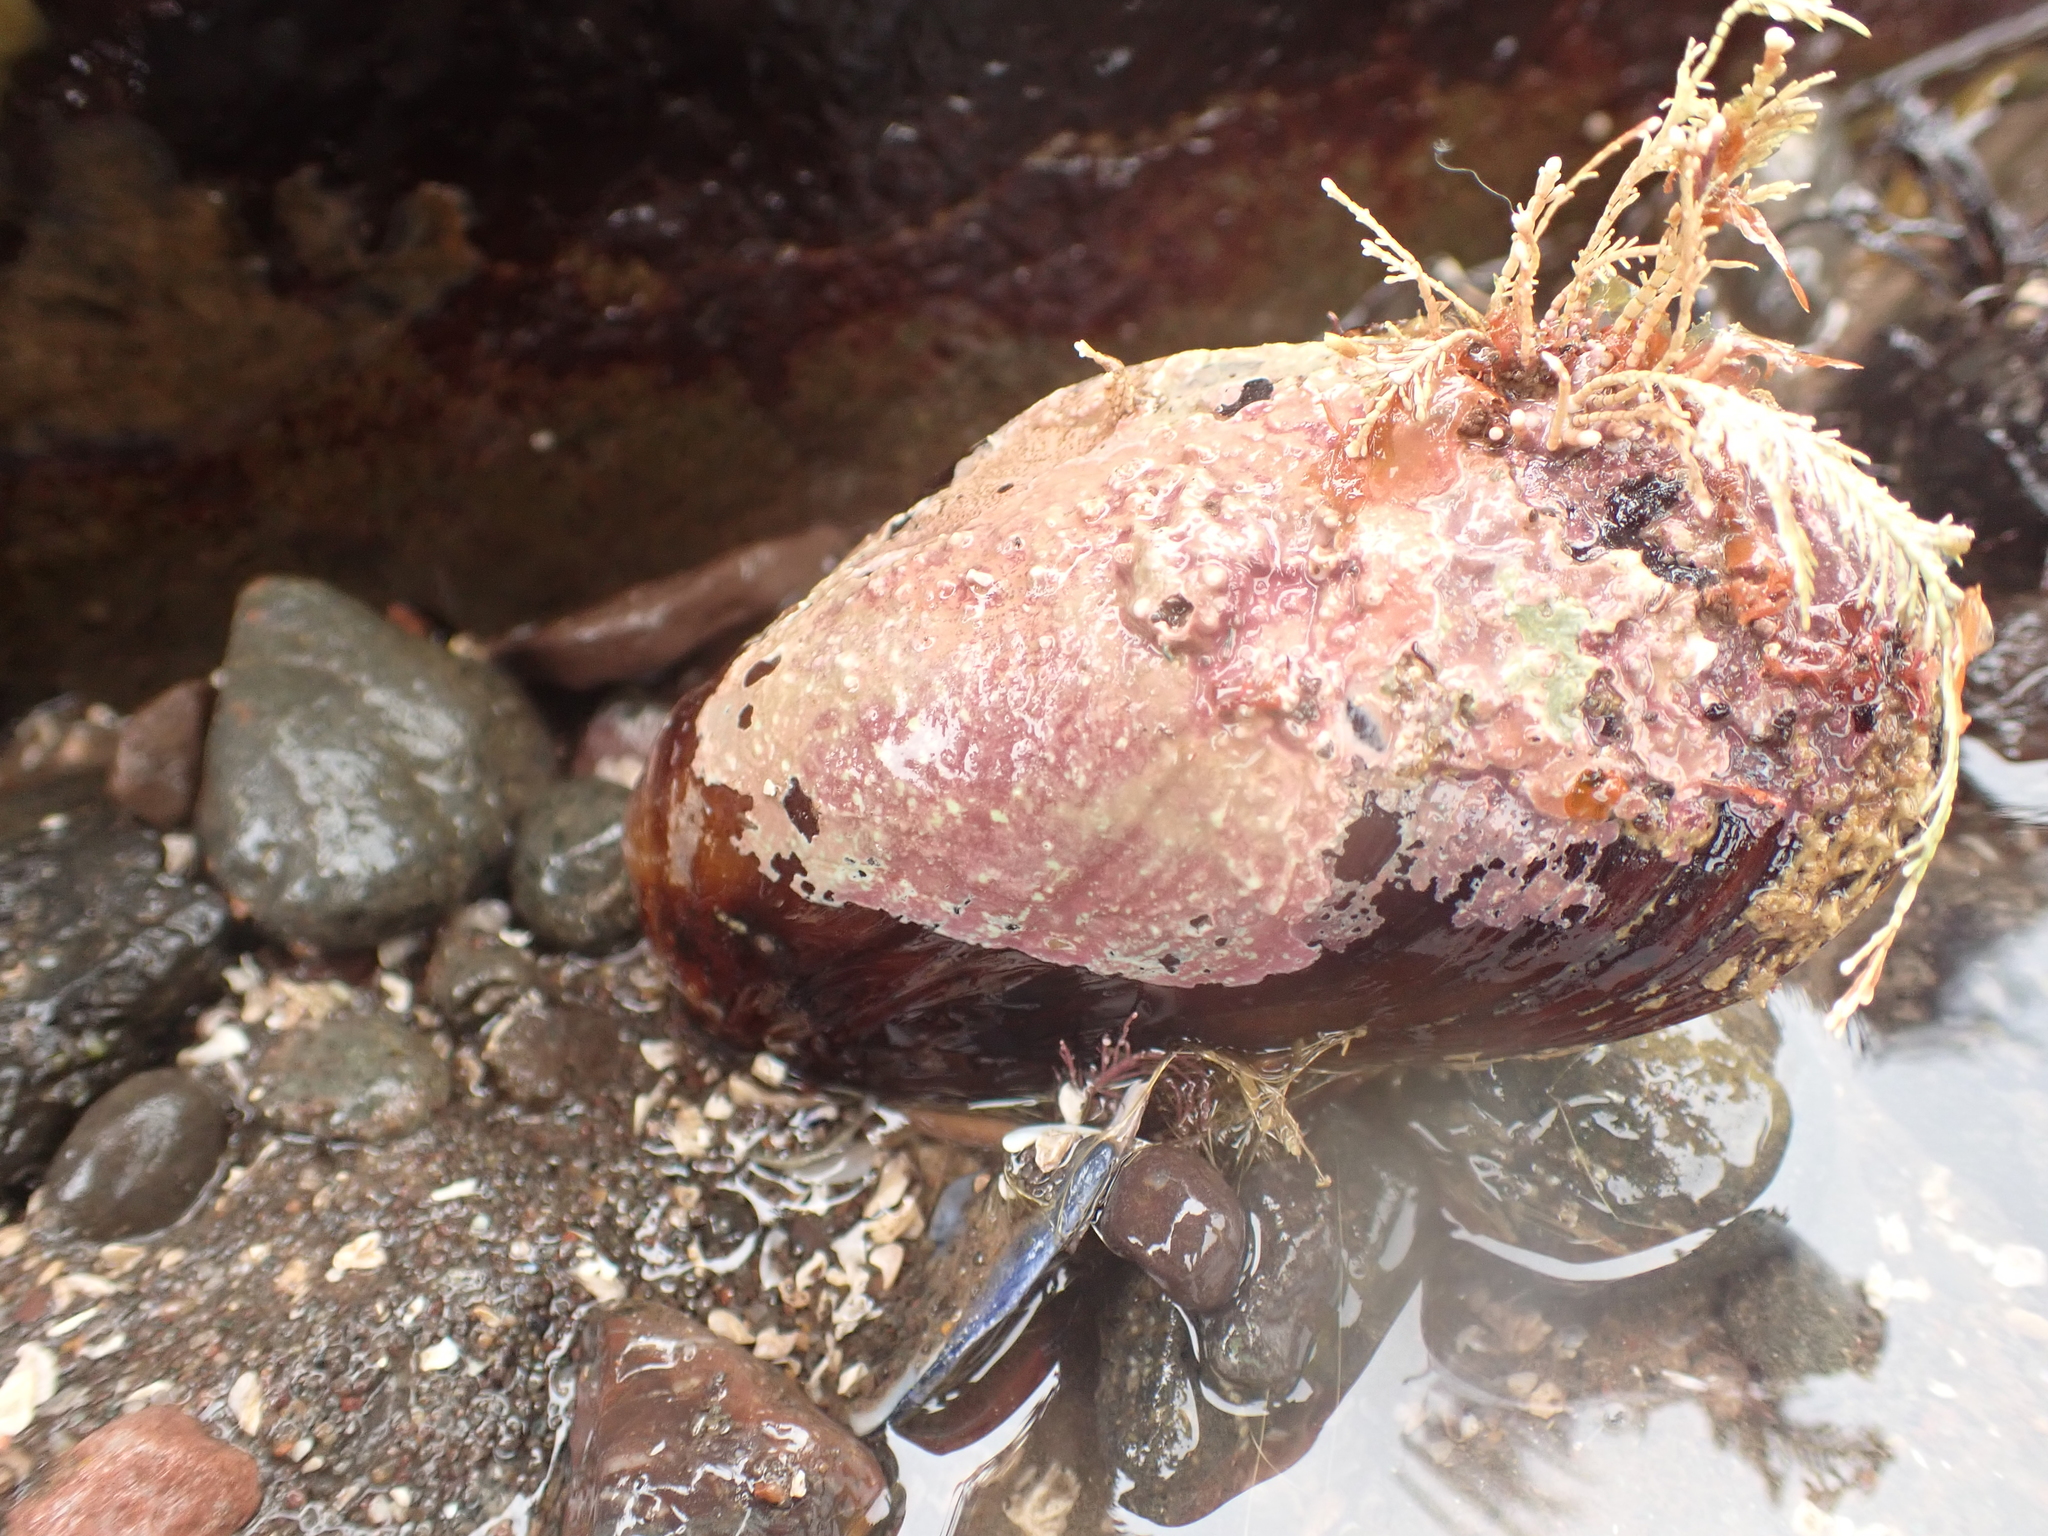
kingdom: Animalia
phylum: Mollusca
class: Bivalvia
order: Mytilida
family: Mytilidae
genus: Modiolus
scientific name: Modiolus modiolus
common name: Horse-mussel
